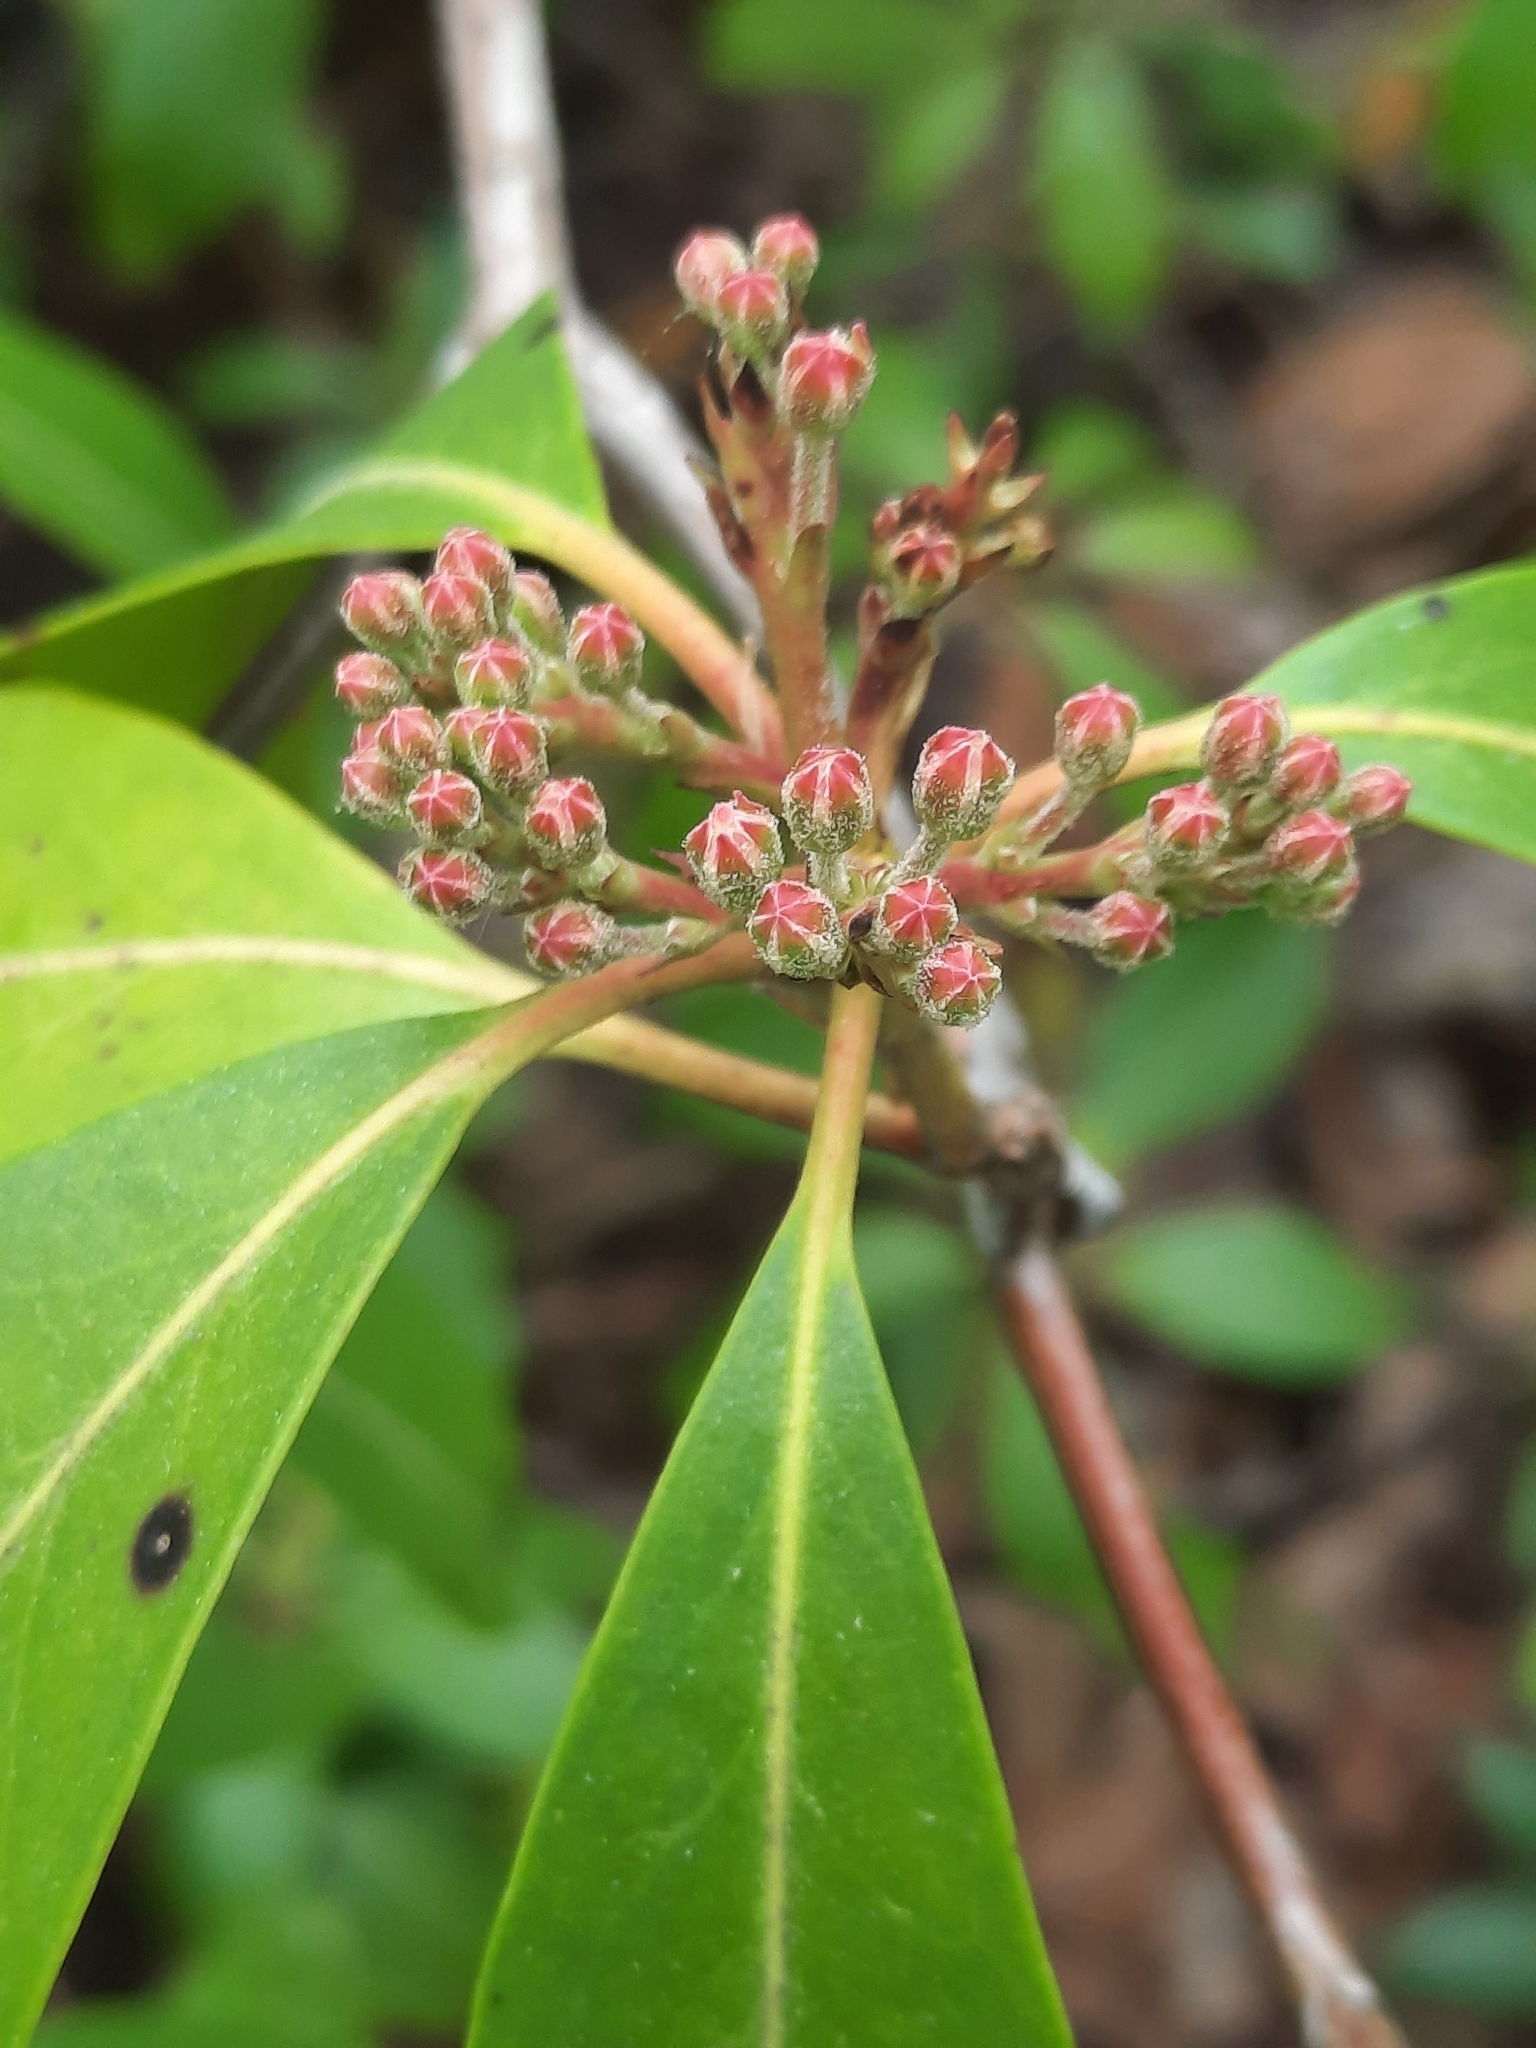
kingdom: Plantae
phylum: Tracheophyta
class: Magnoliopsida
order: Ericales
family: Ericaceae
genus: Kalmia
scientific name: Kalmia latifolia
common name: Mountain-laurel
